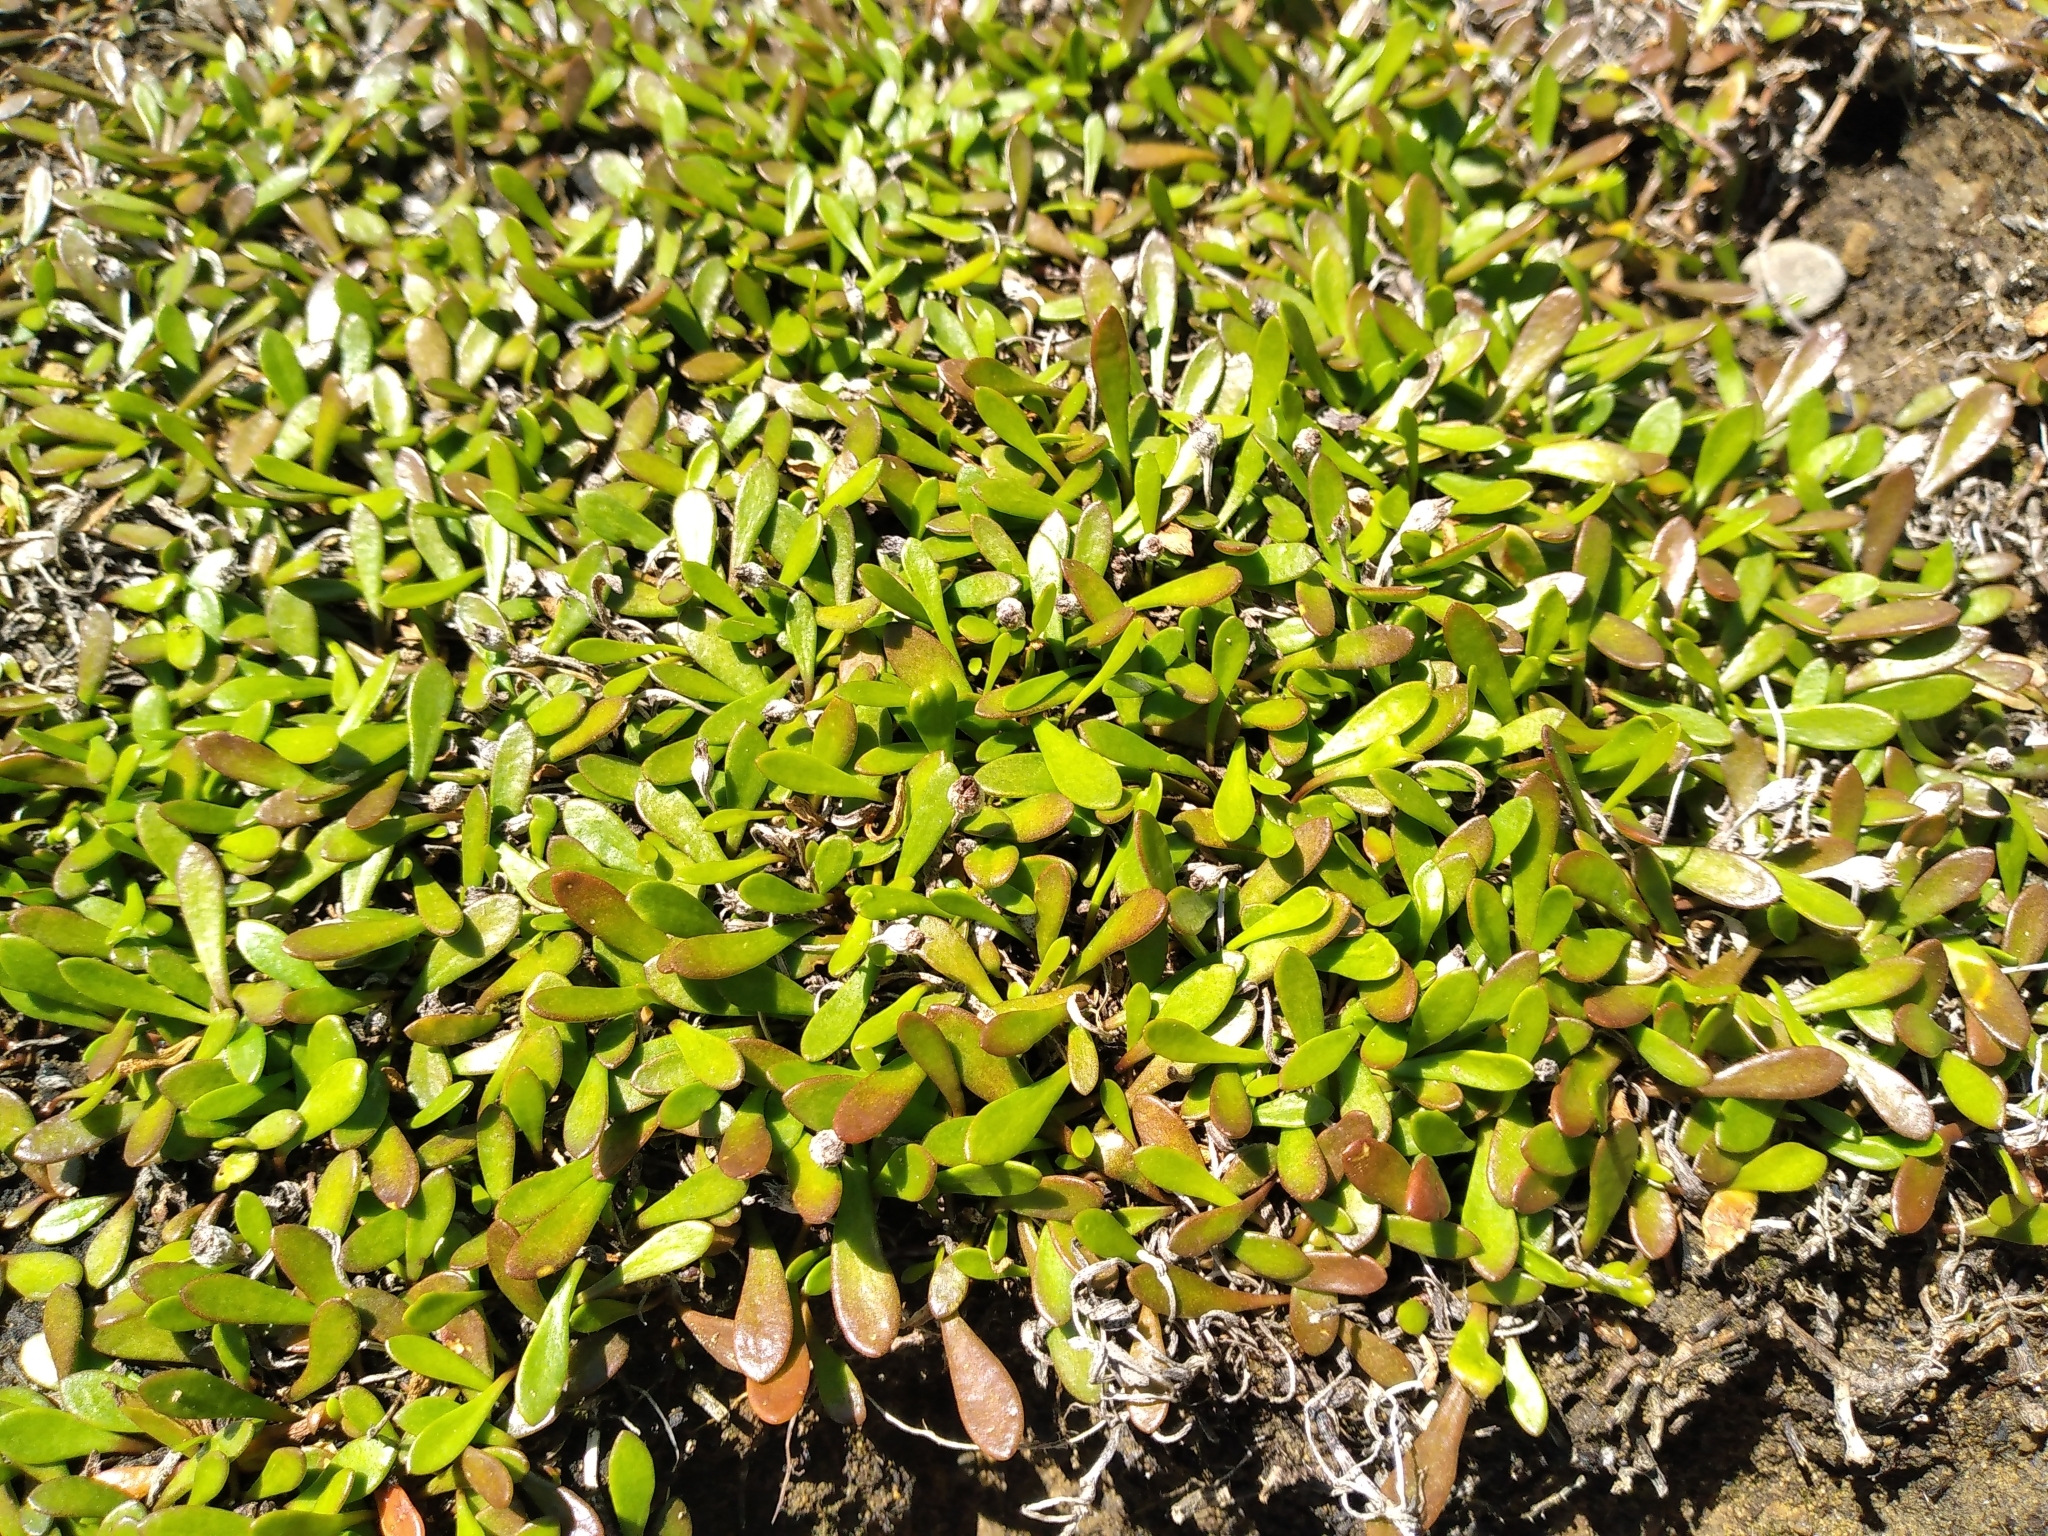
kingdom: Plantae
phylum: Tracheophyta
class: Magnoliopsida
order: Asterales
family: Goodeniaceae
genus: Goodenia
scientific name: Goodenia radicans
